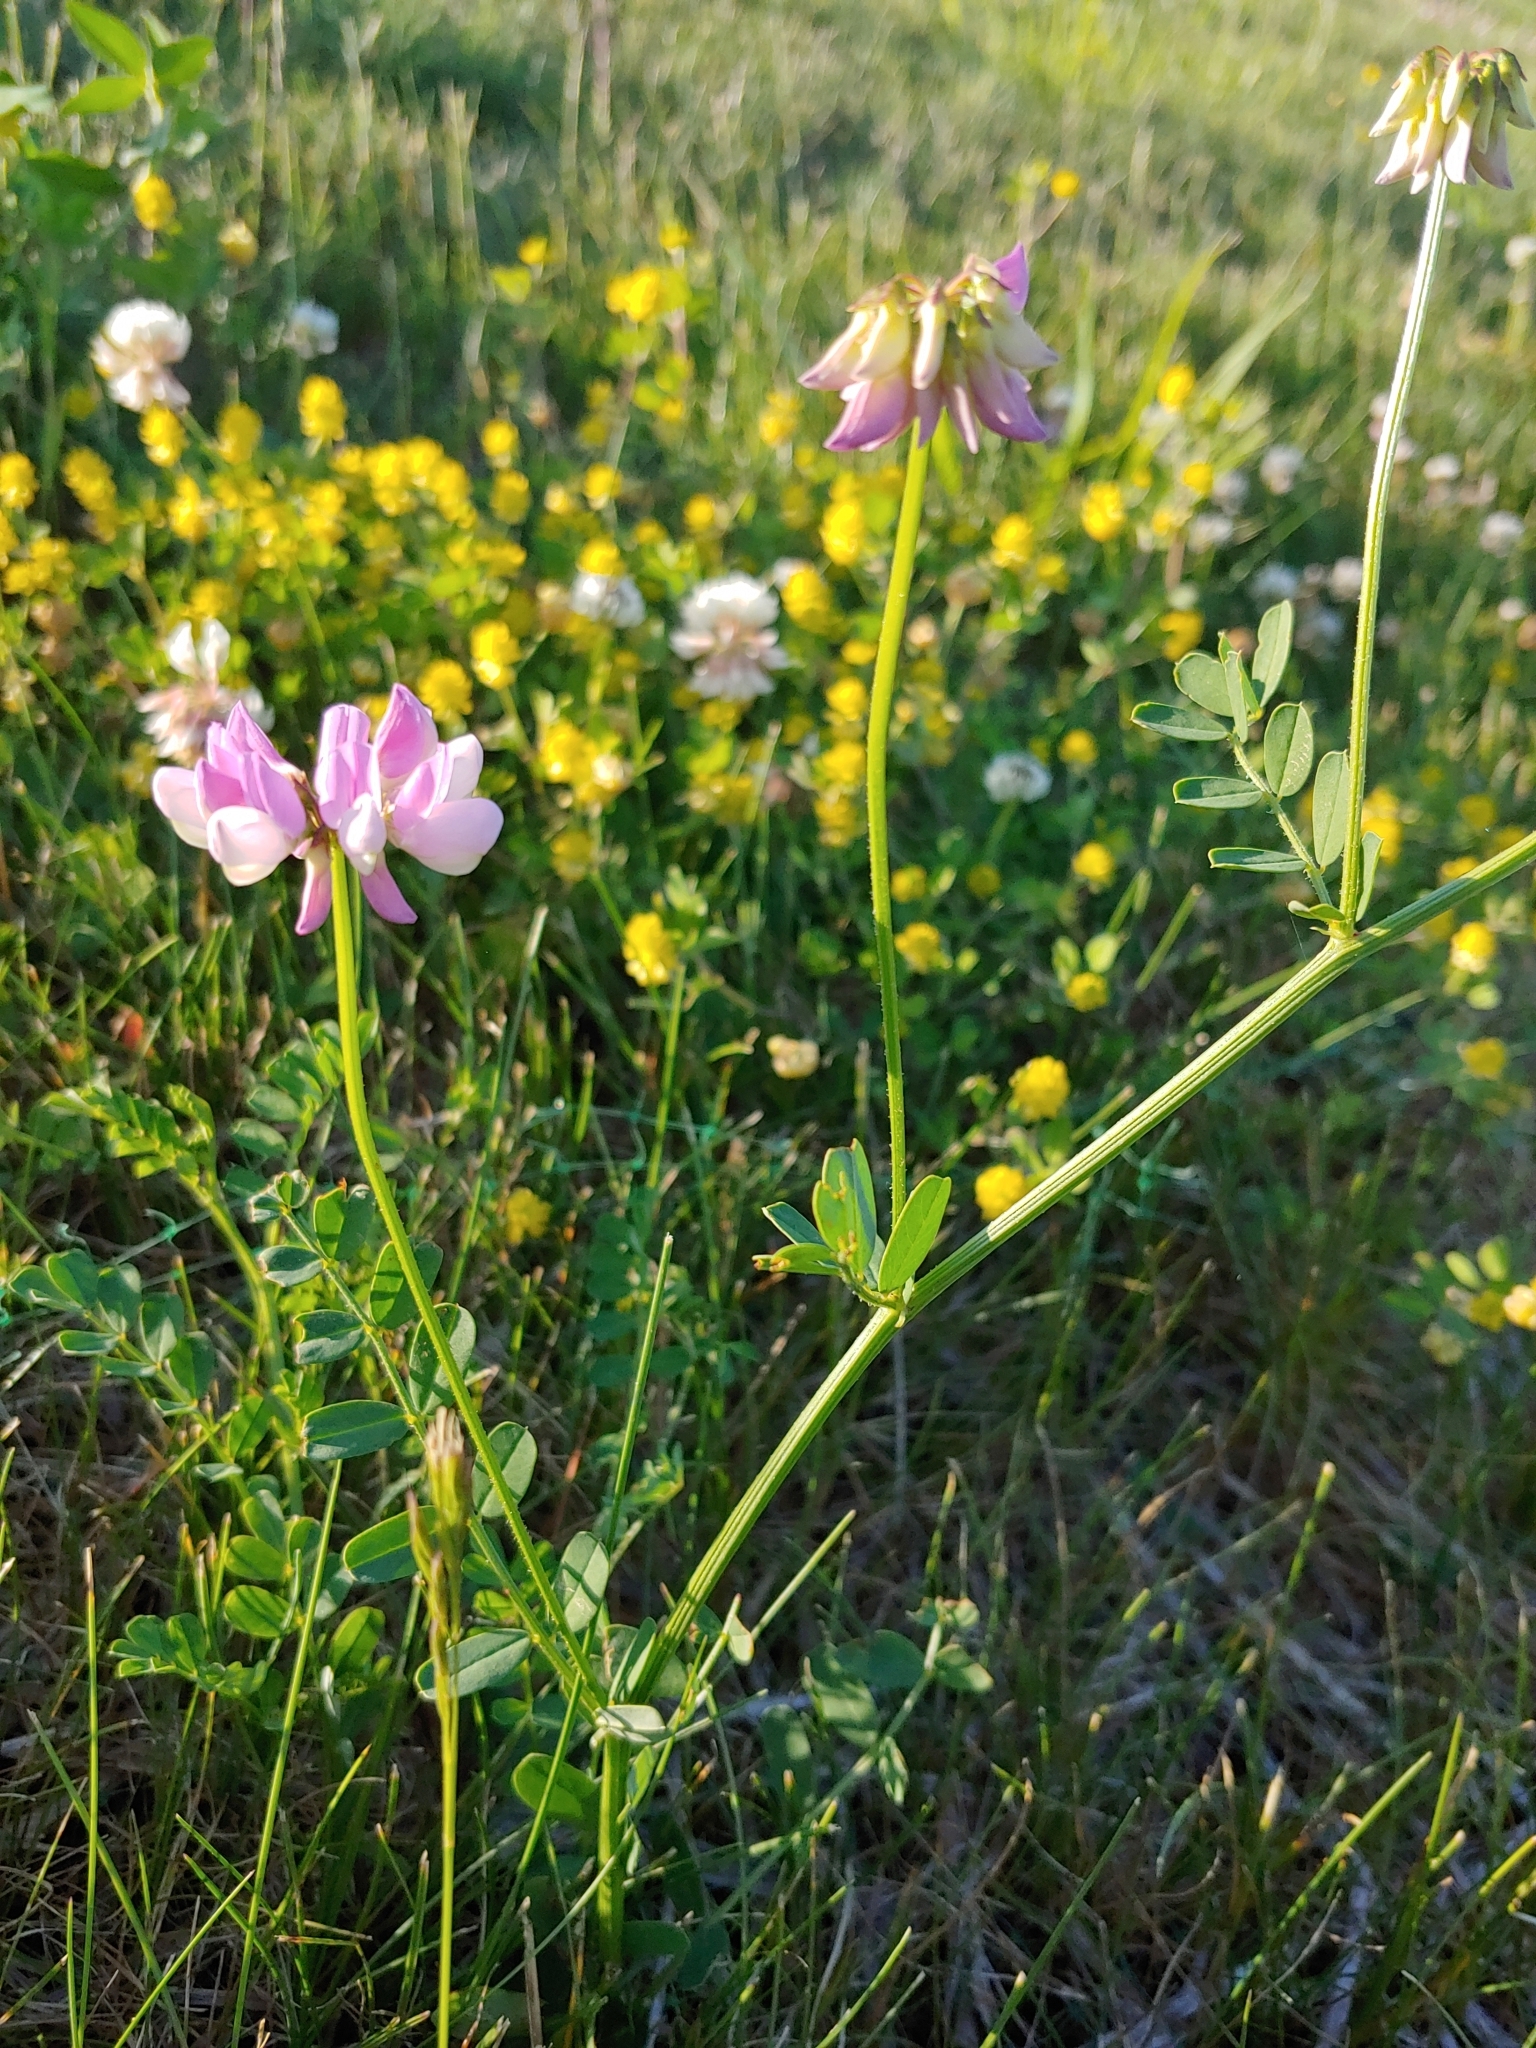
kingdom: Plantae
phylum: Tracheophyta
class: Magnoliopsida
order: Fabales
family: Fabaceae
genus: Coronilla
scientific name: Coronilla varia
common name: Crownvetch
